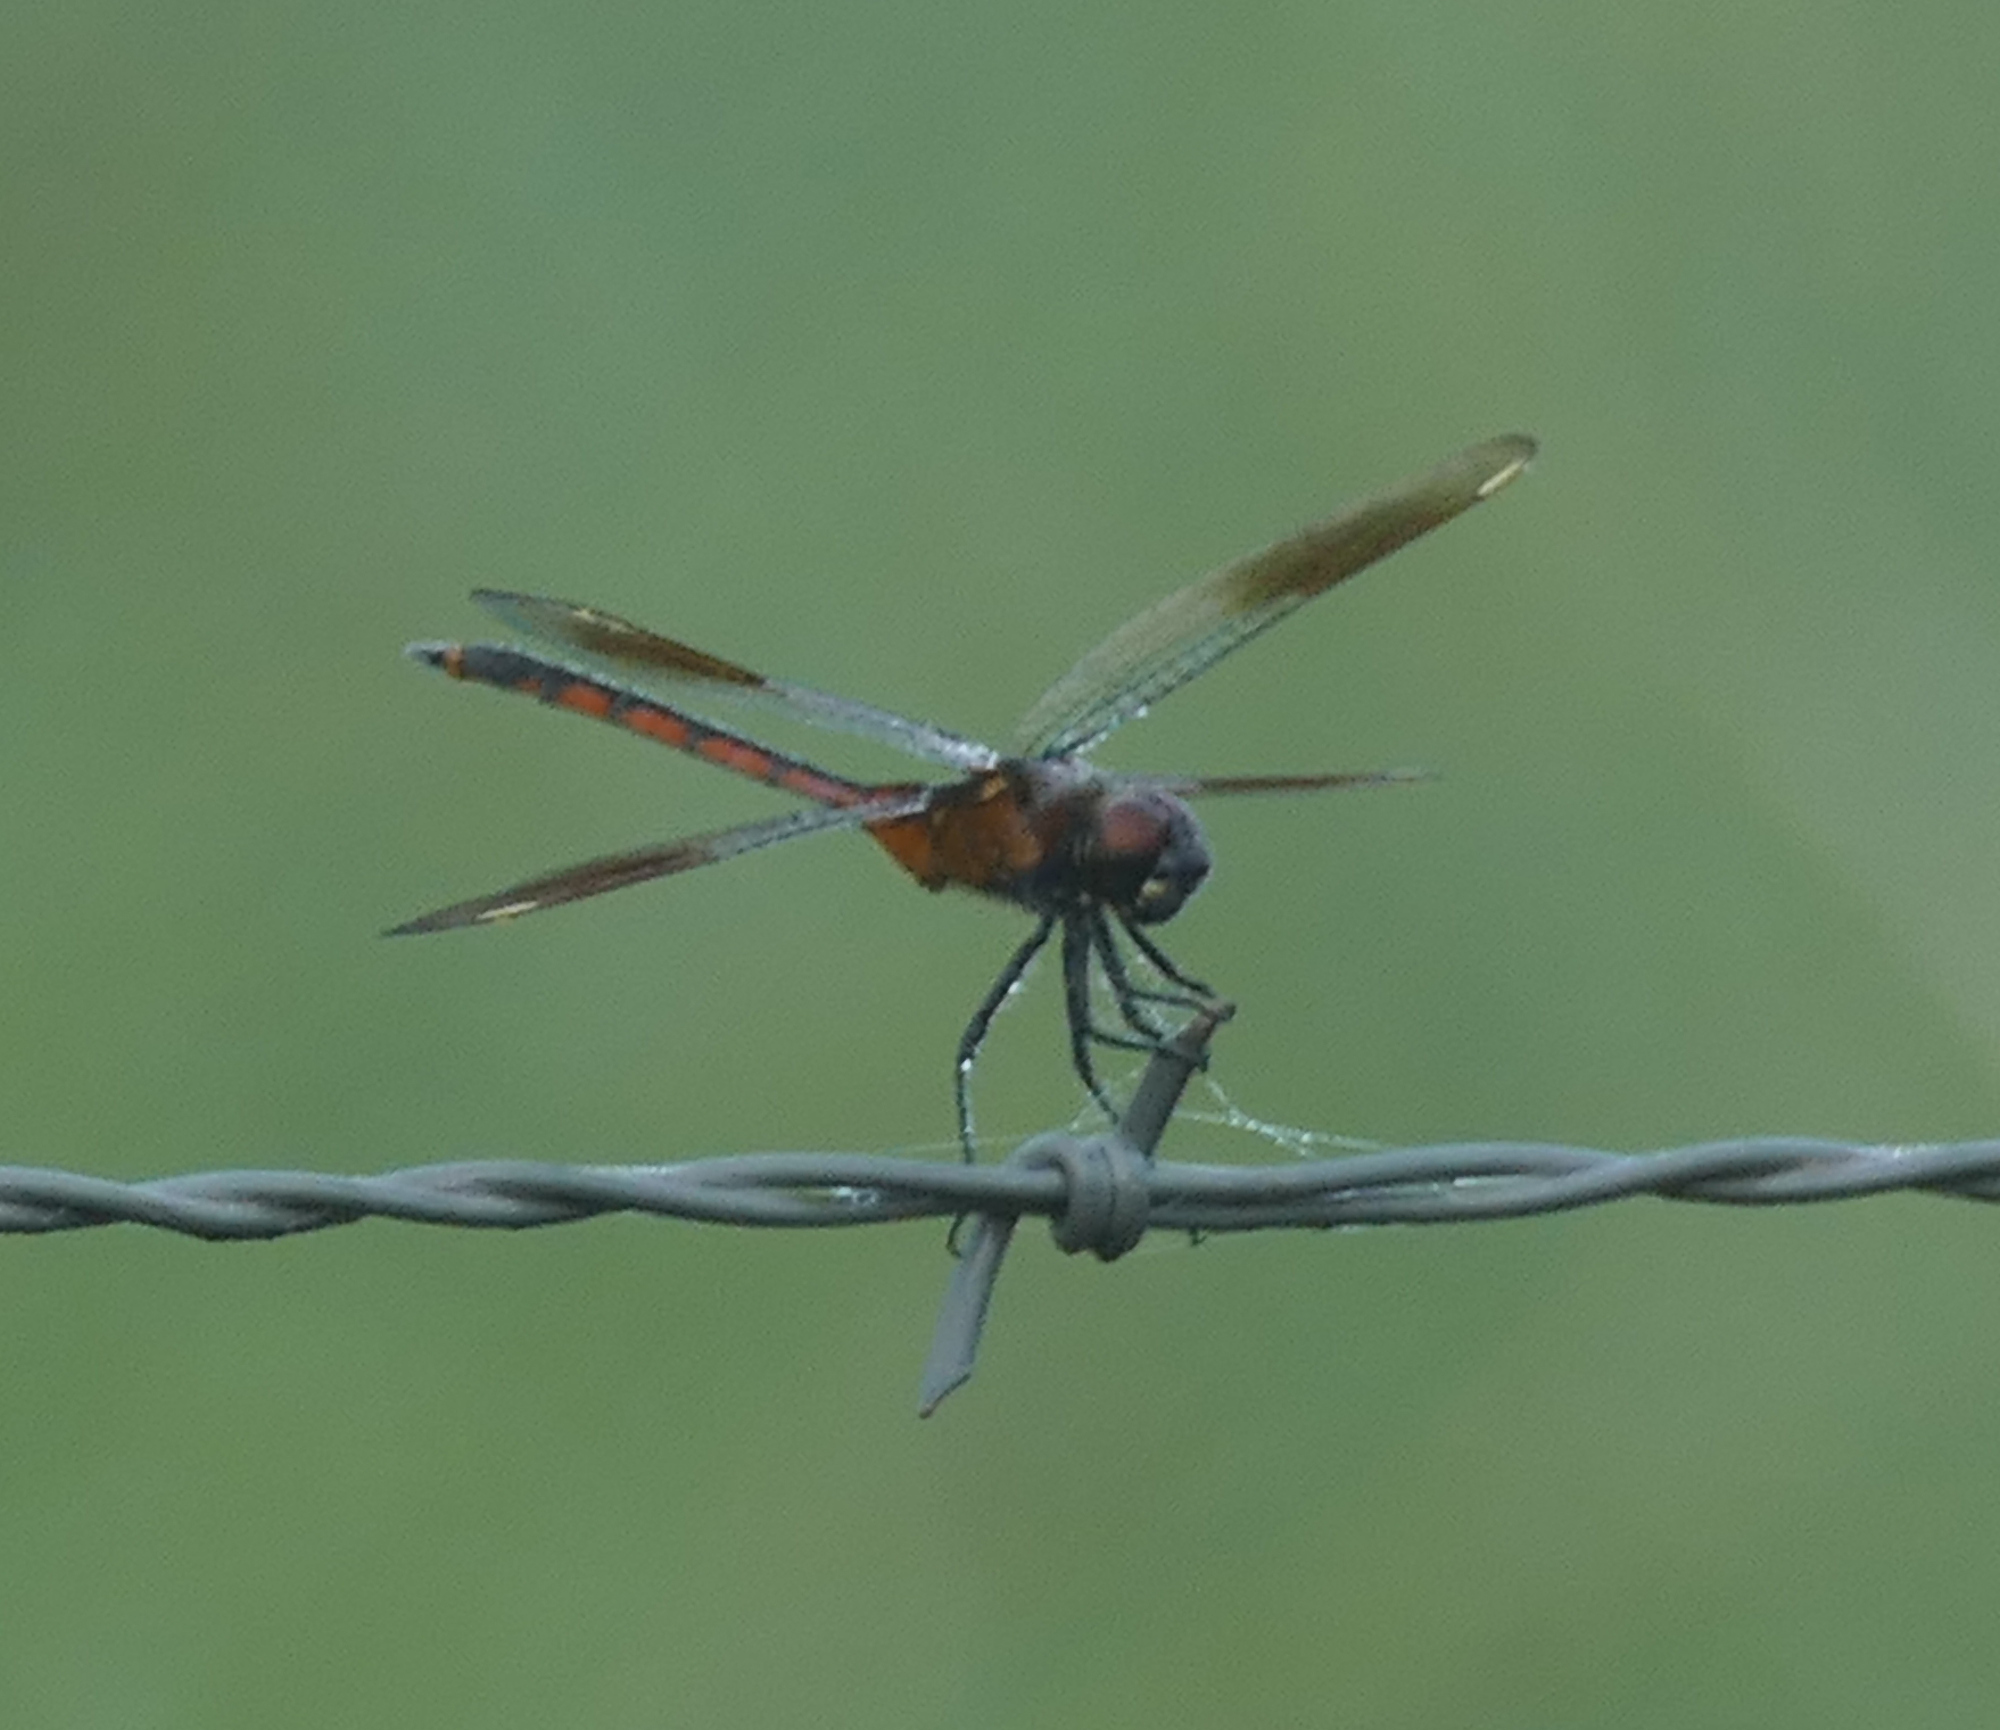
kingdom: Animalia
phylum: Arthropoda
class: Insecta
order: Odonata
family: Libellulidae
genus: Brachymesia
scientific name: Brachymesia gravida
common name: Four-spotted pennant
